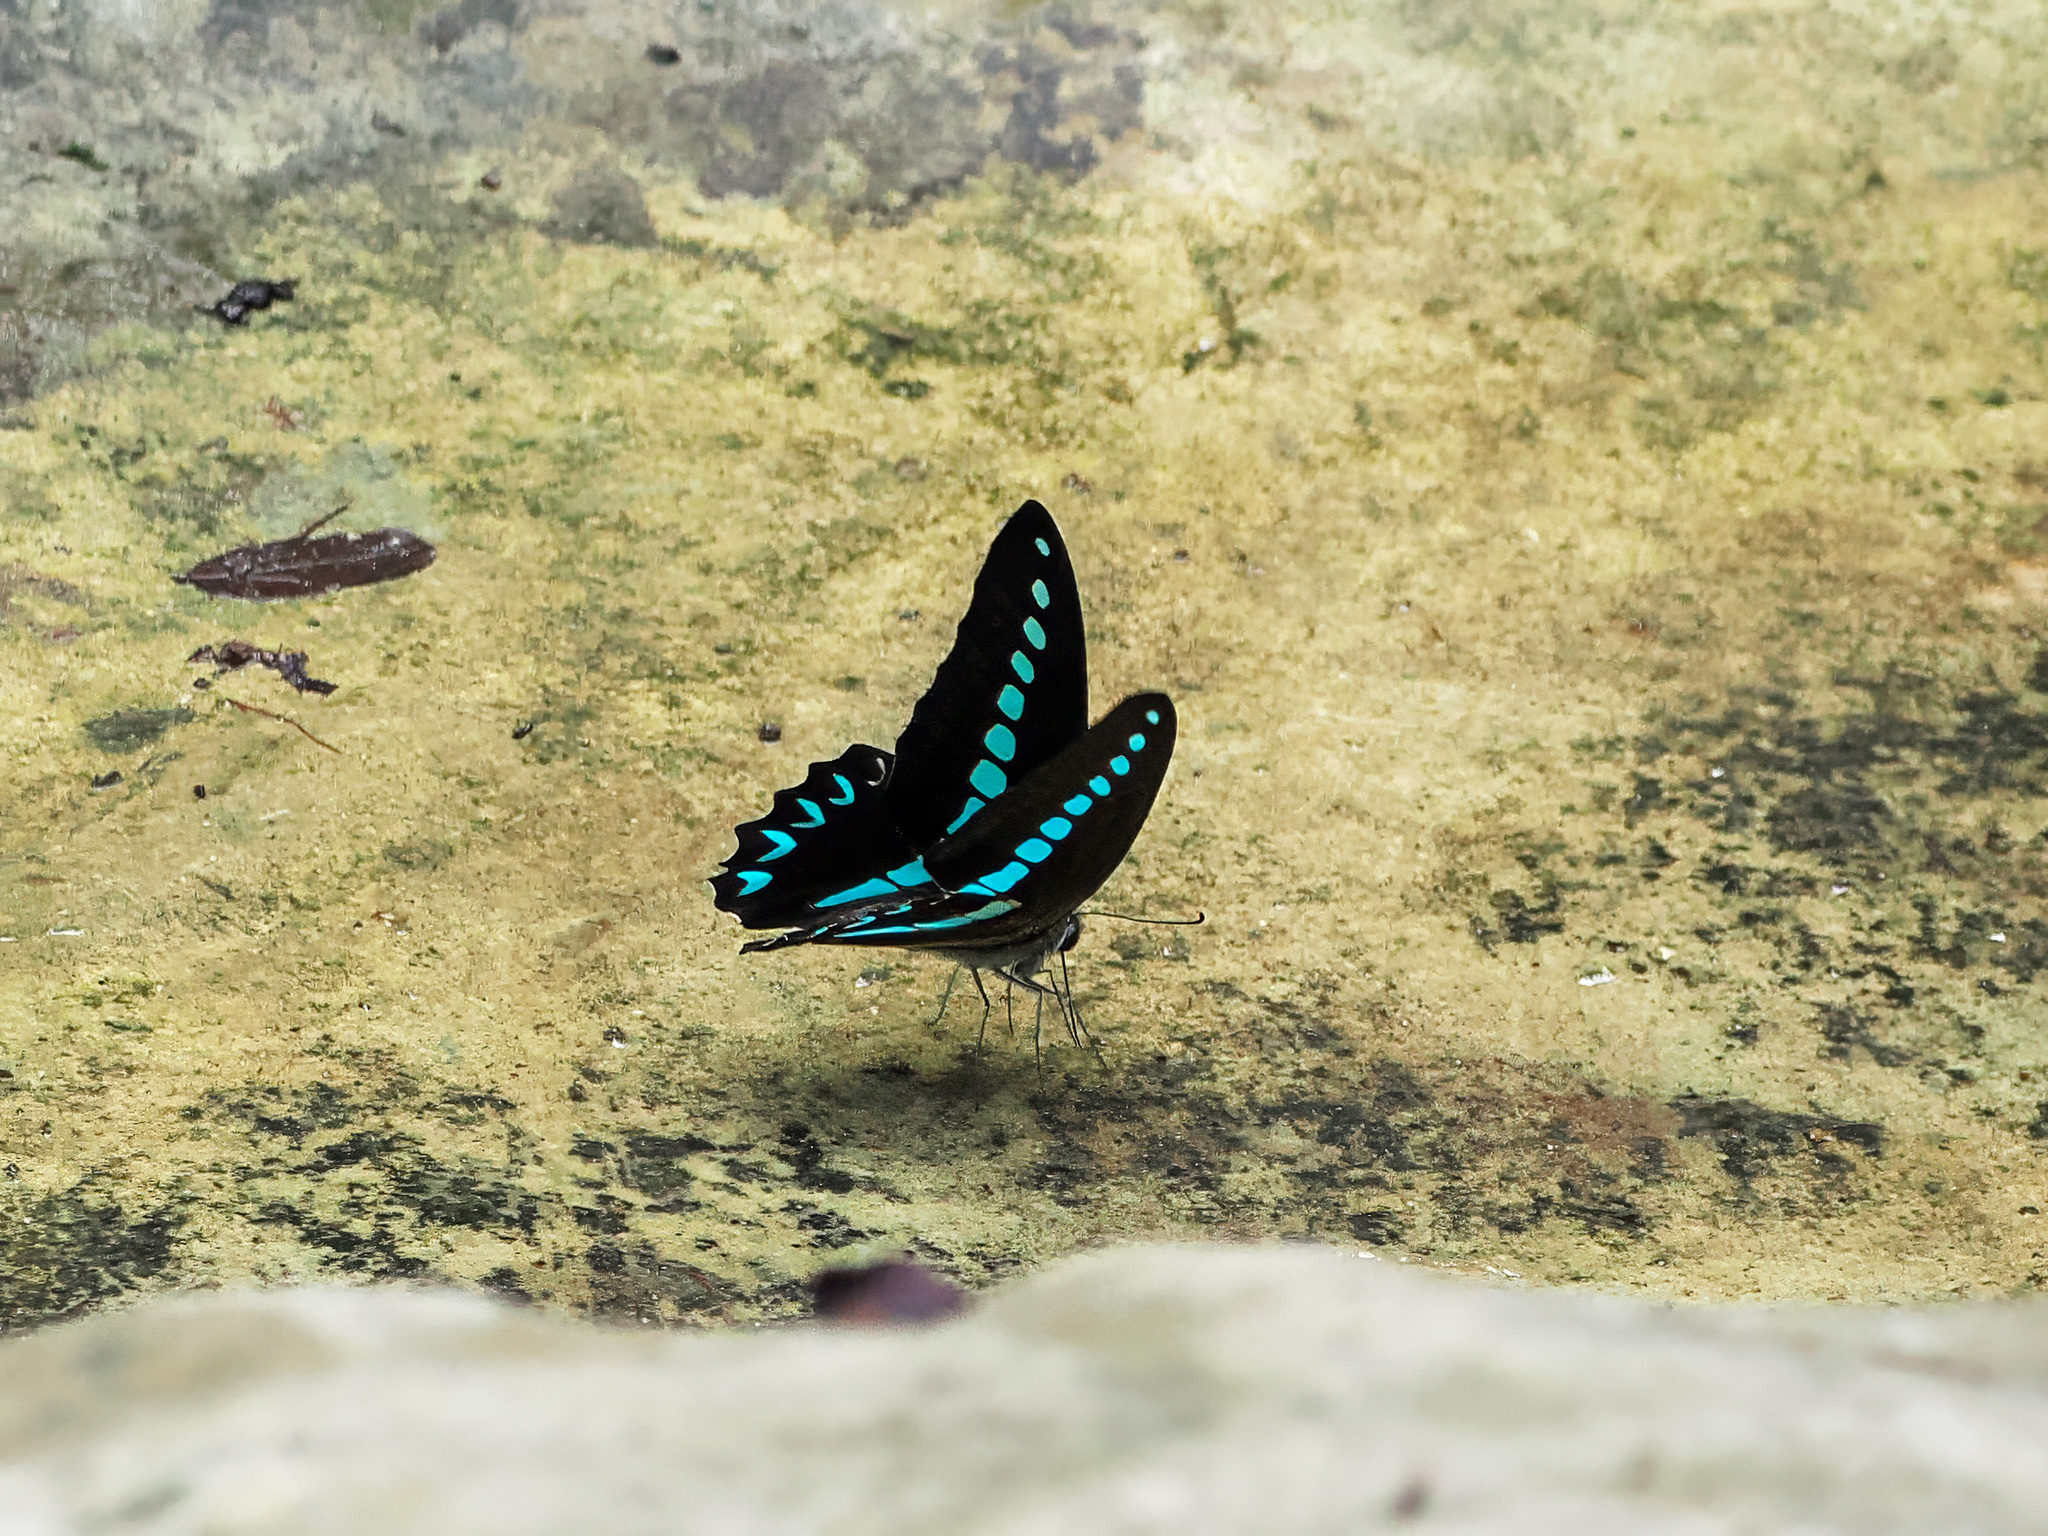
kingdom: Animalia
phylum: Arthropoda
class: Insecta
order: Lepidoptera
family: Papilionidae
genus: Graphium
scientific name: Graphium milon
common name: Milon's swallowtail
